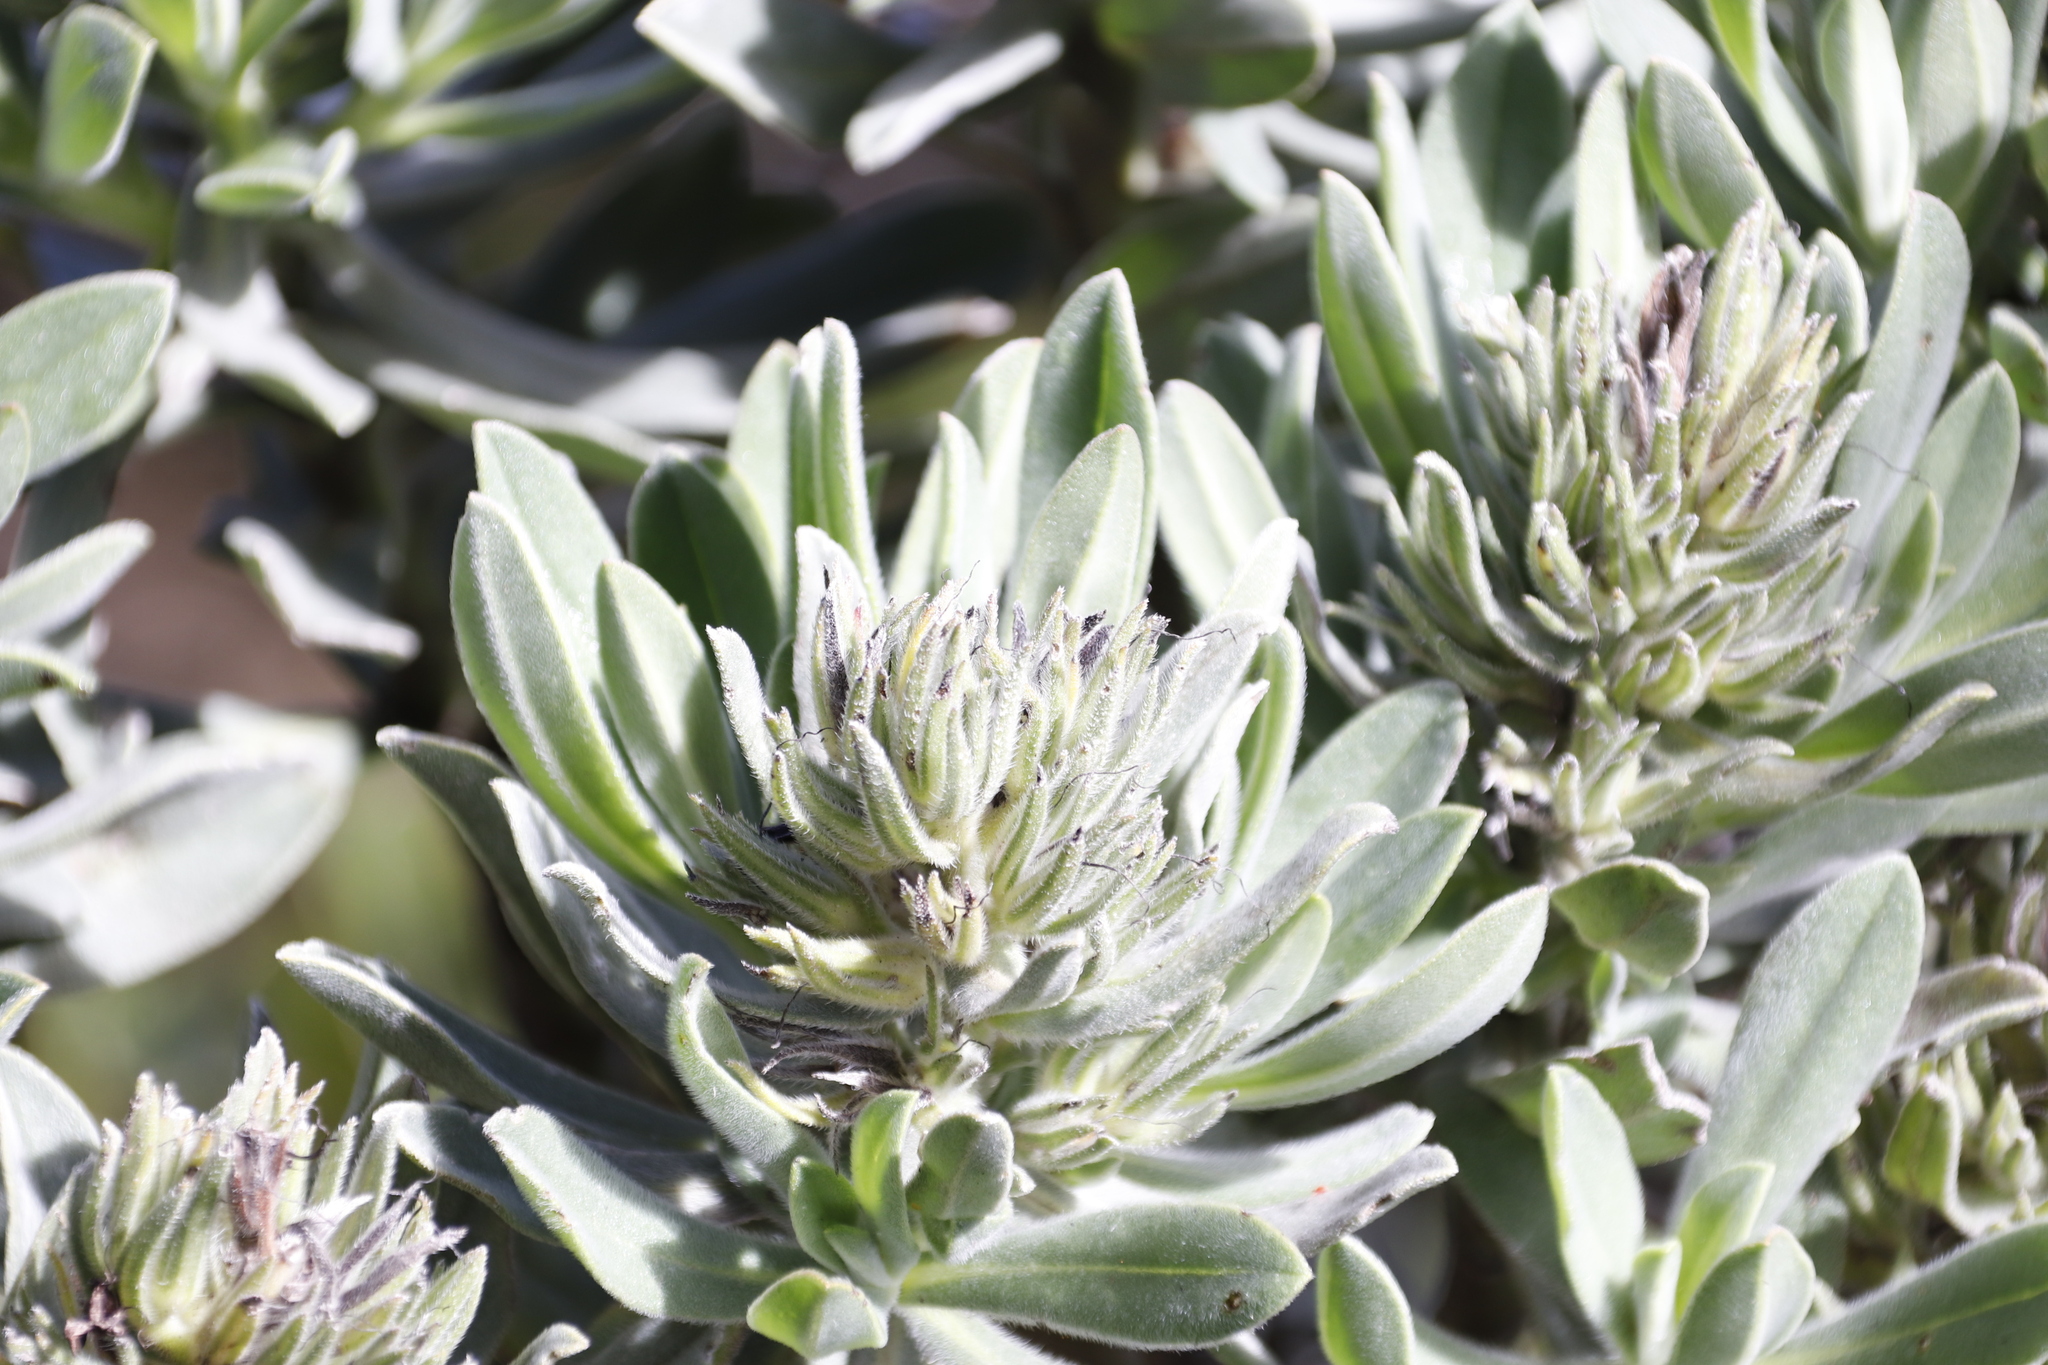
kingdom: Plantae
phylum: Tracheophyta
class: Magnoliopsida
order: Boraginales
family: Boraginaceae
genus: Lobostemon
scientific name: Lobostemon montanus
